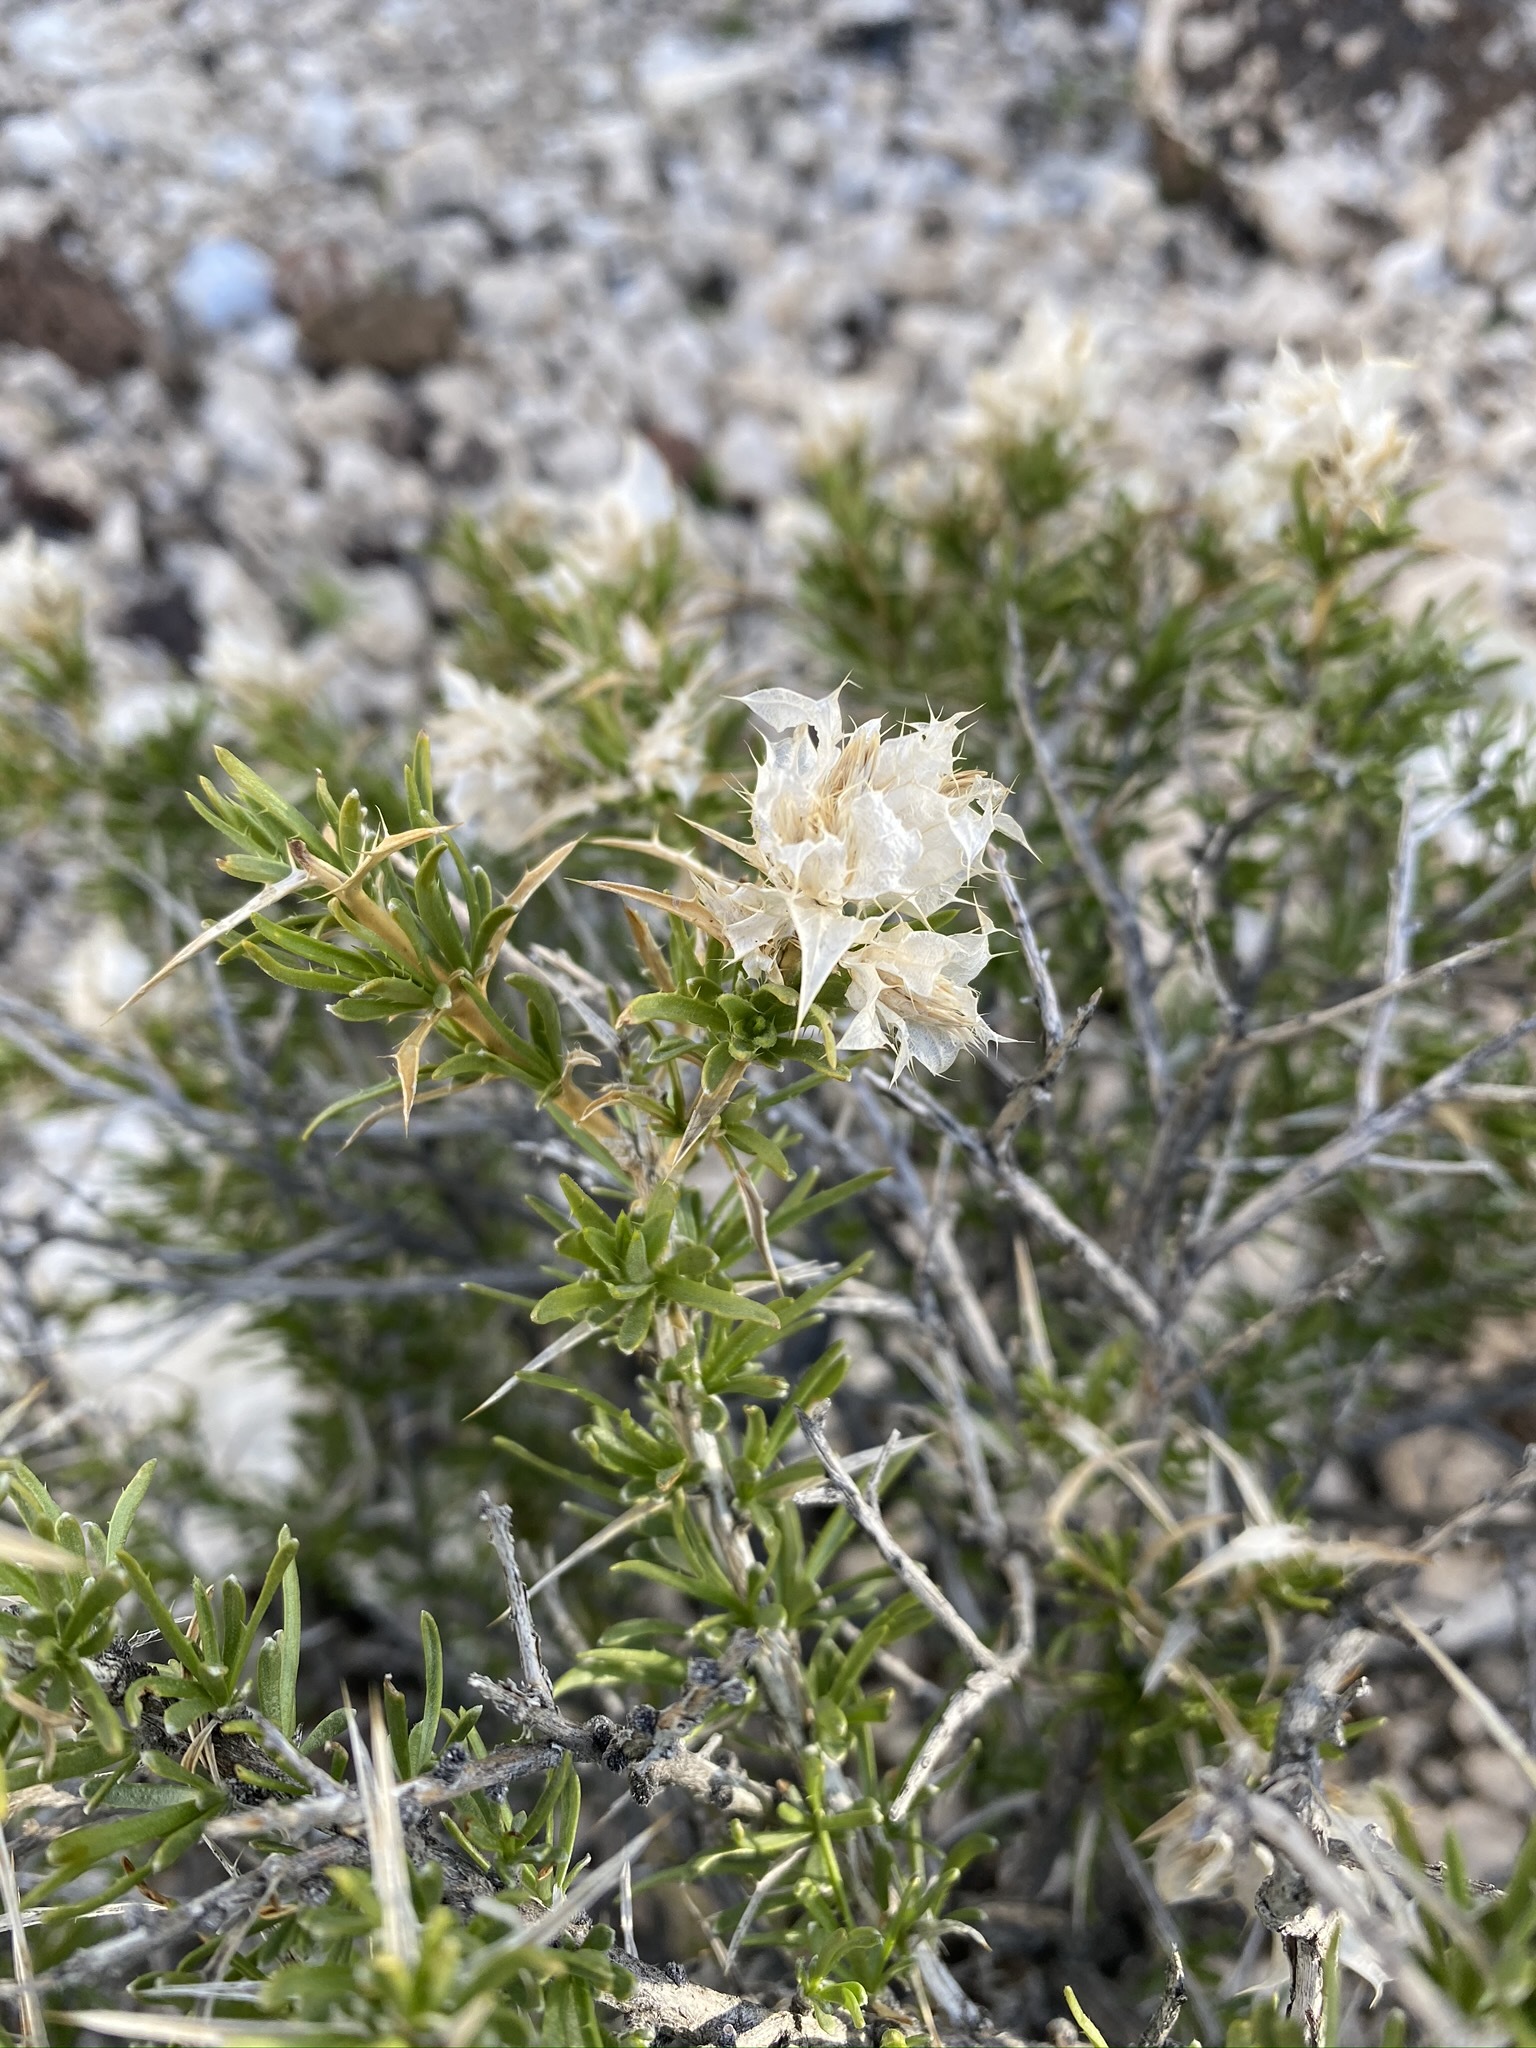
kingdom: Plantae
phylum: Tracheophyta
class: Magnoliopsida
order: Asterales
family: Asteraceae
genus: Hecastocleis
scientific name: Hecastocleis shockleyi
